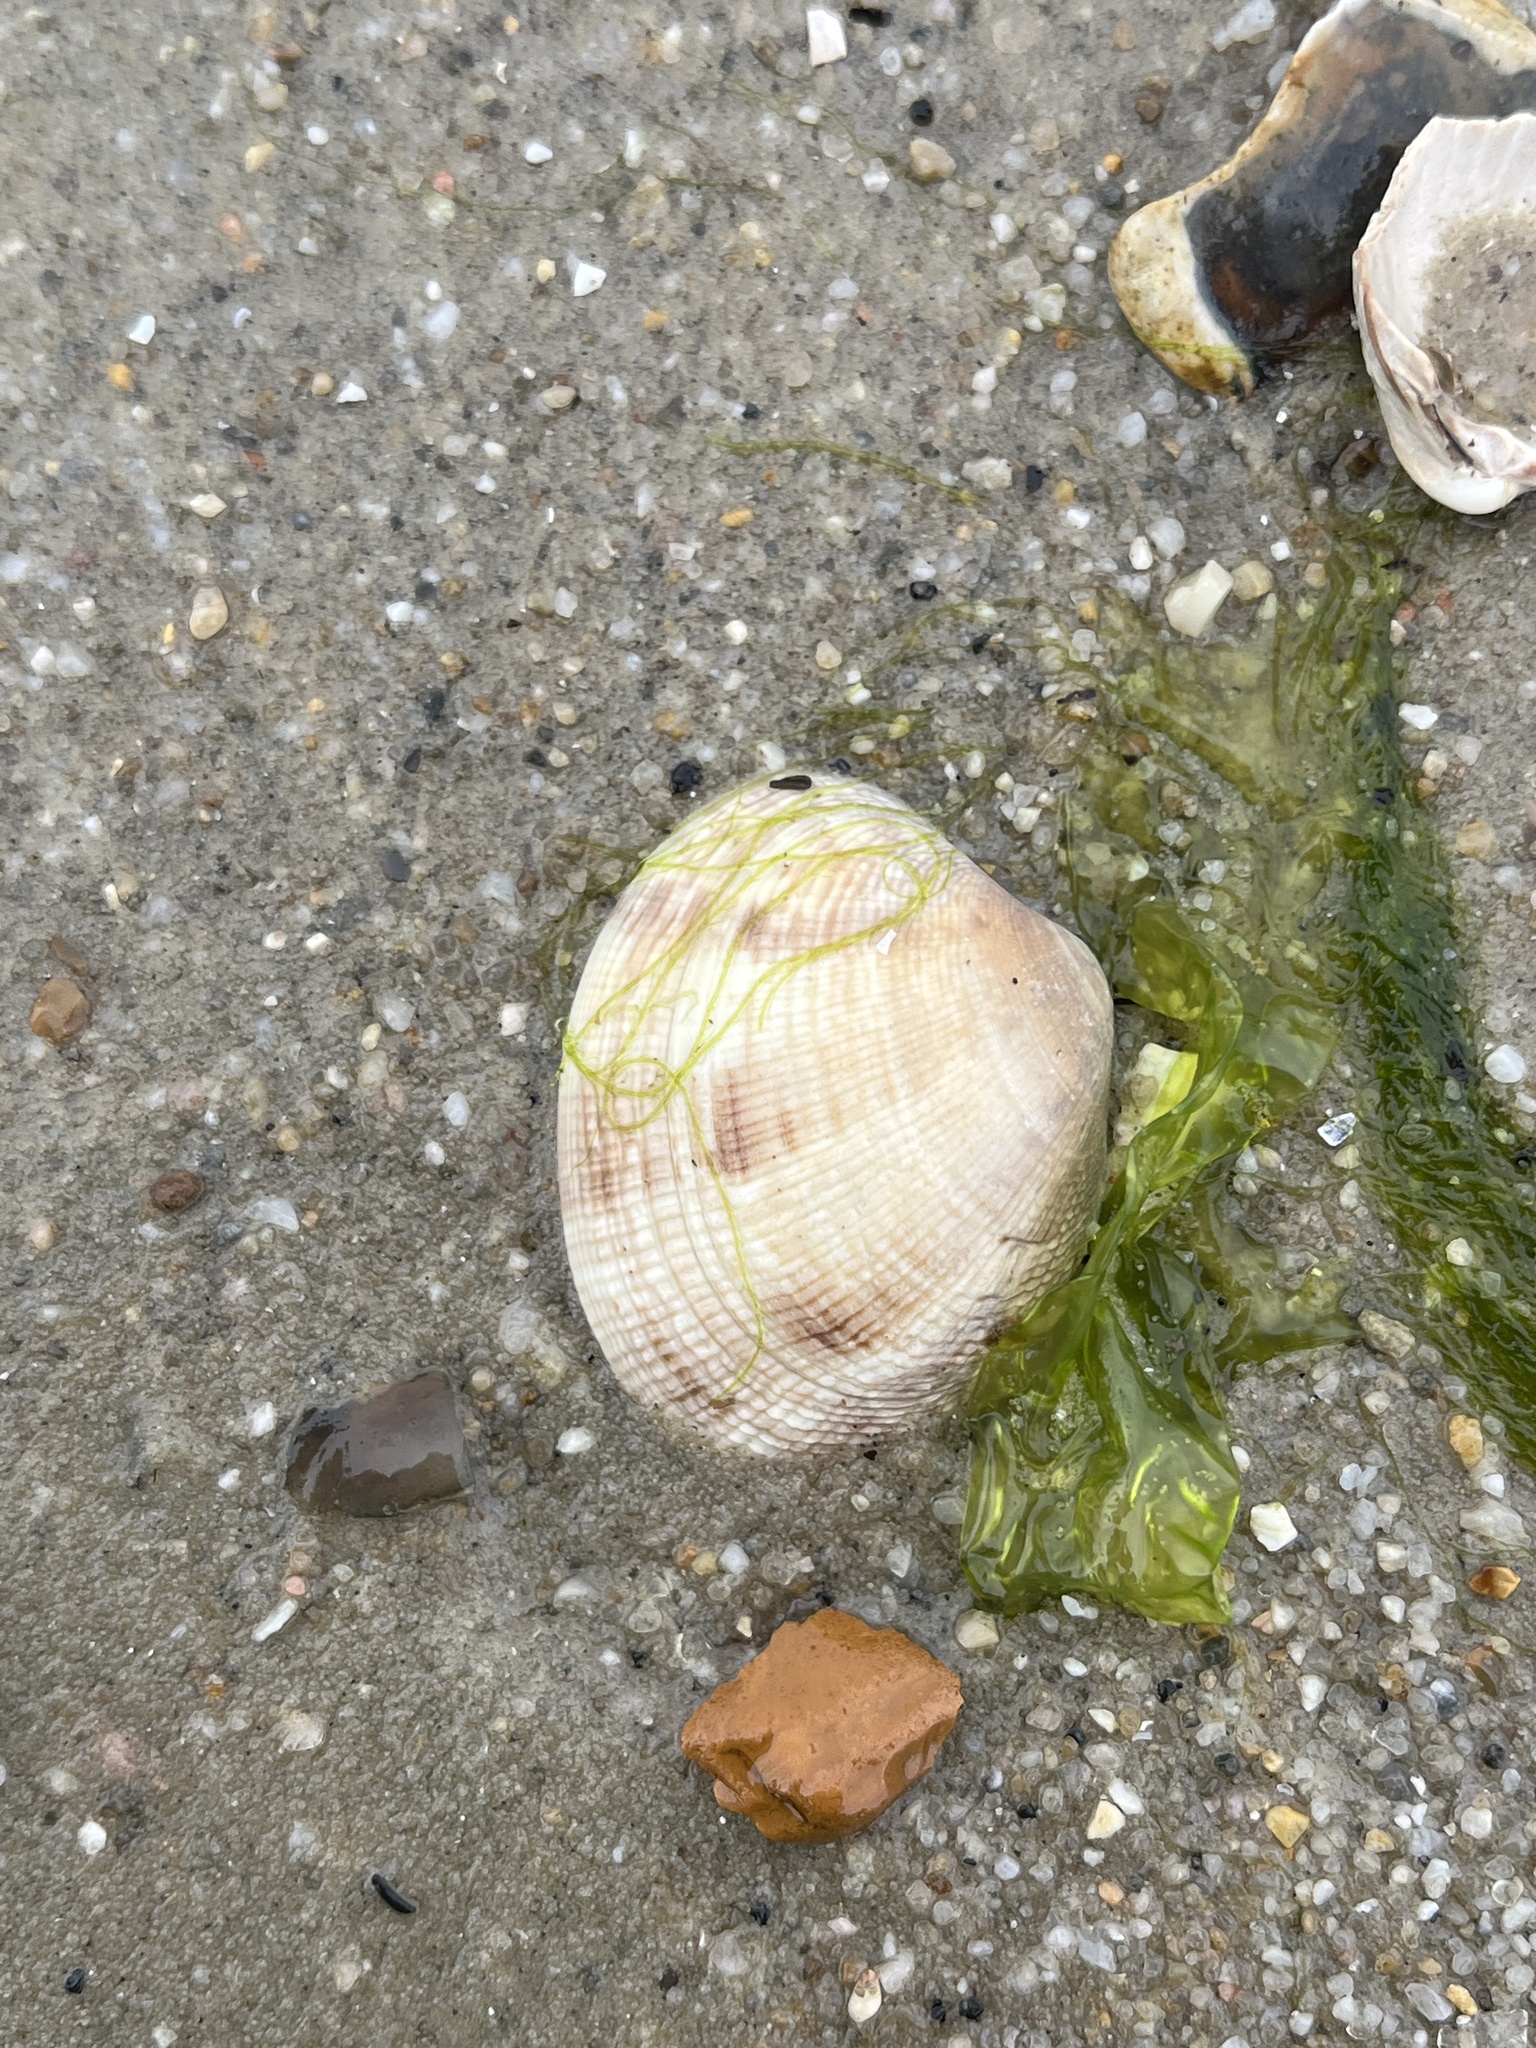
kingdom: Animalia
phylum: Mollusca
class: Bivalvia
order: Venerida
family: Veneridae
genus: Ruditapes
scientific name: Ruditapes philippinarum
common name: Manila clam
